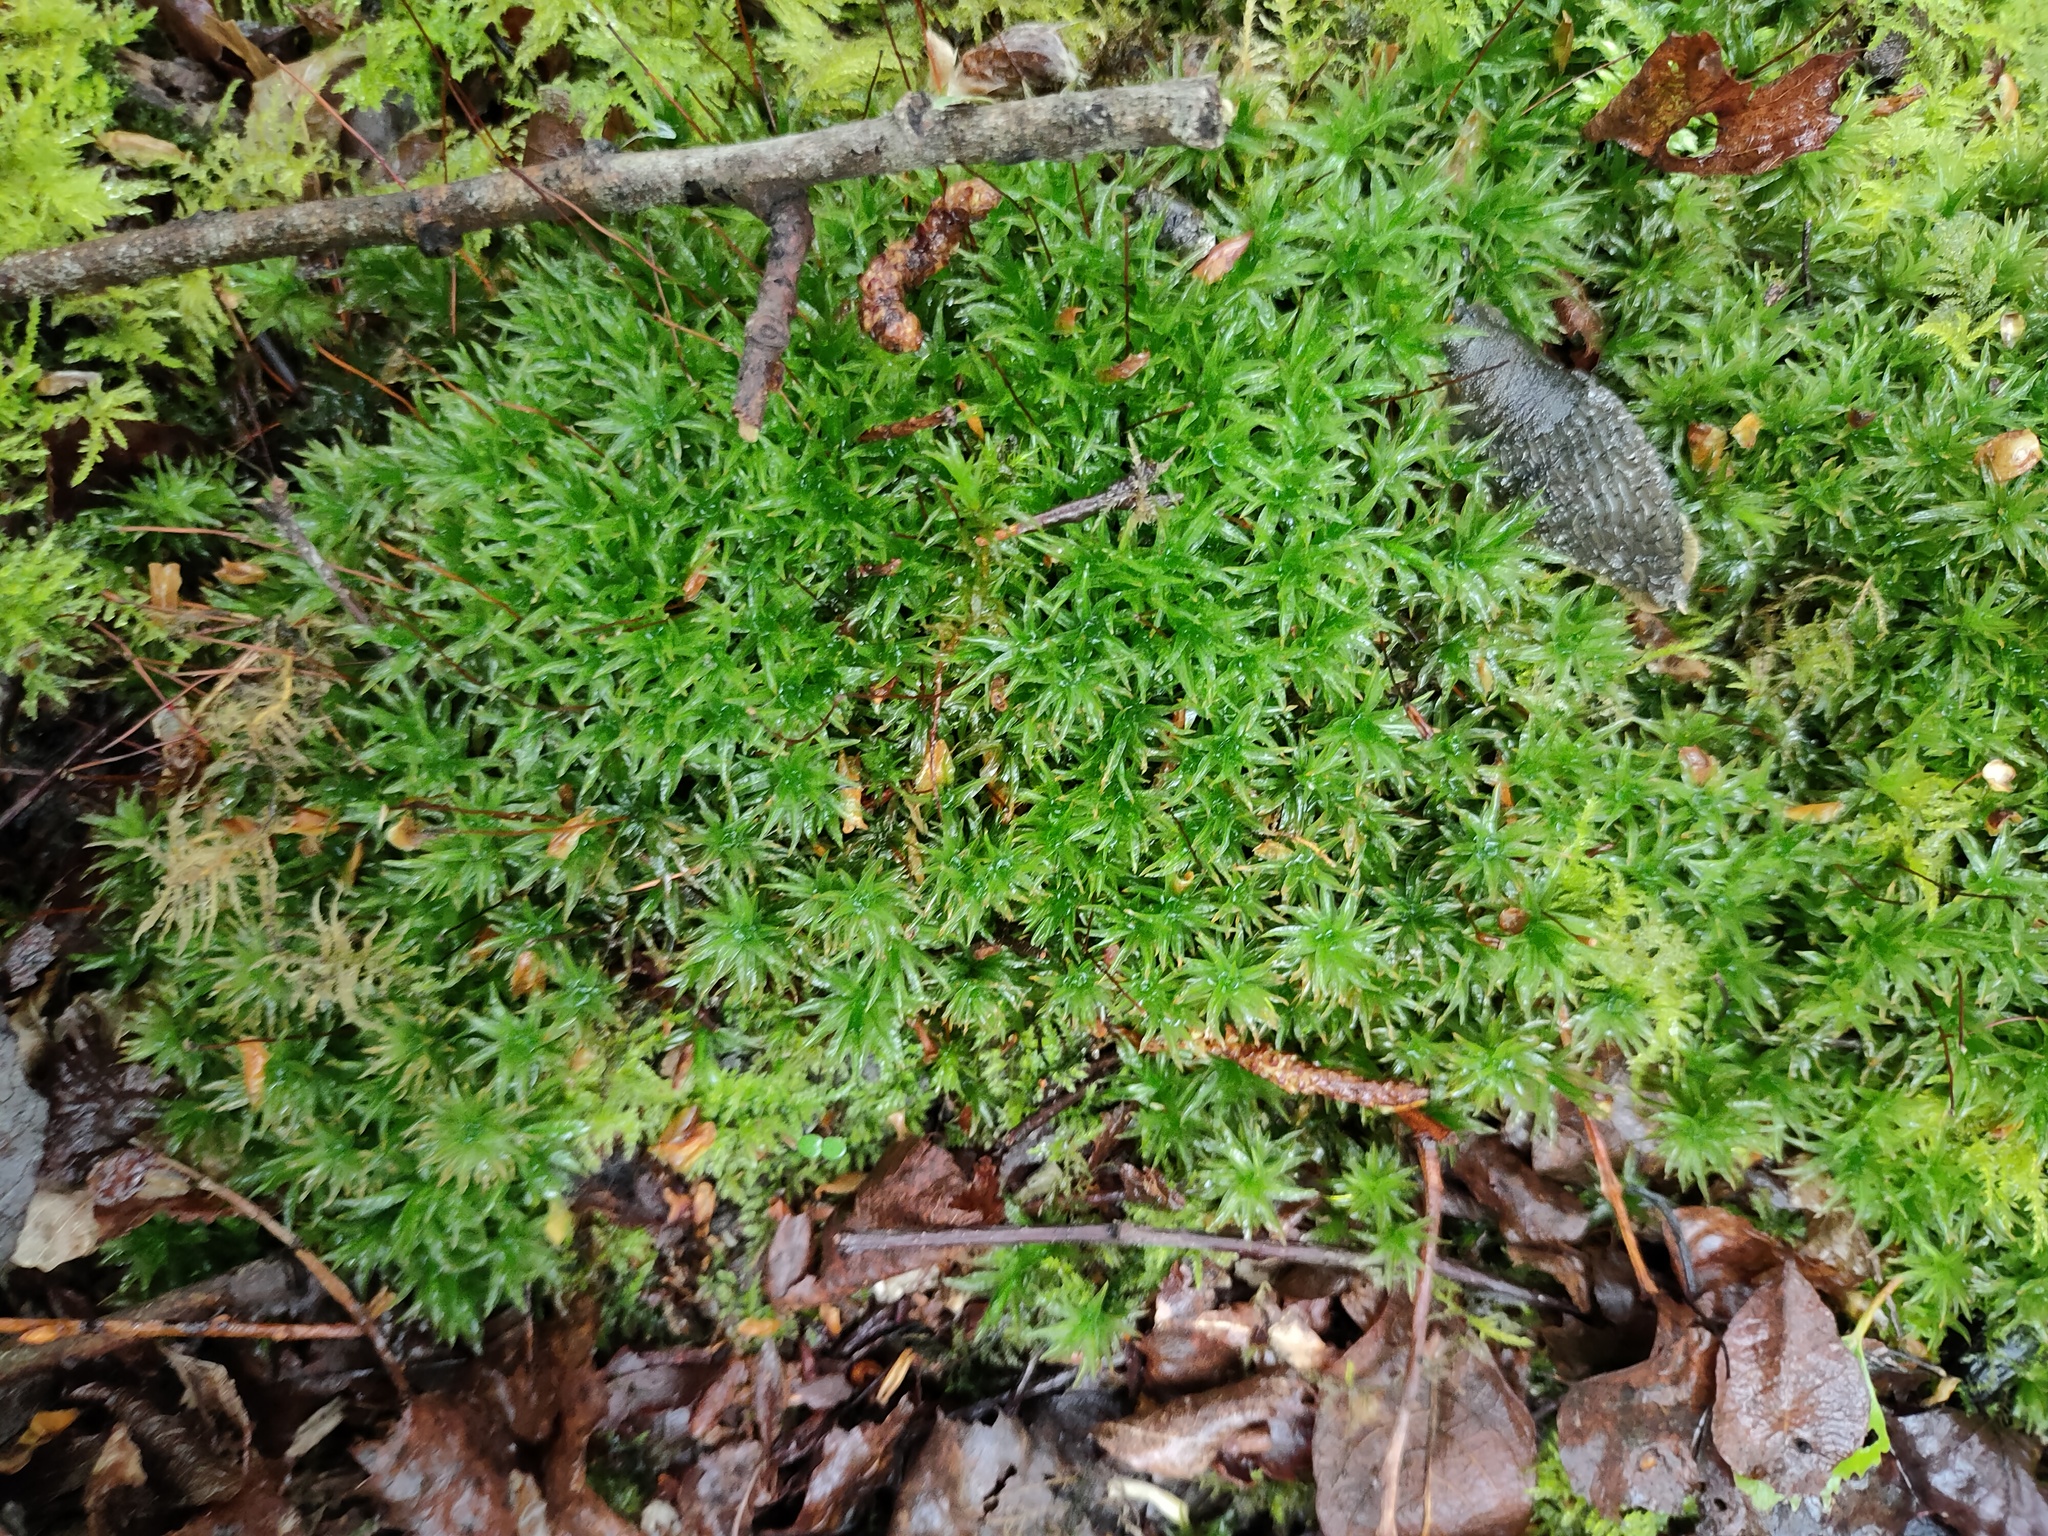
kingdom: Plantae
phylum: Bryophyta
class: Polytrichopsida
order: Polytrichales
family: Polytrichaceae
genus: Atrichum
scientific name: Atrichum undulatum
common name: Common smoothcap
